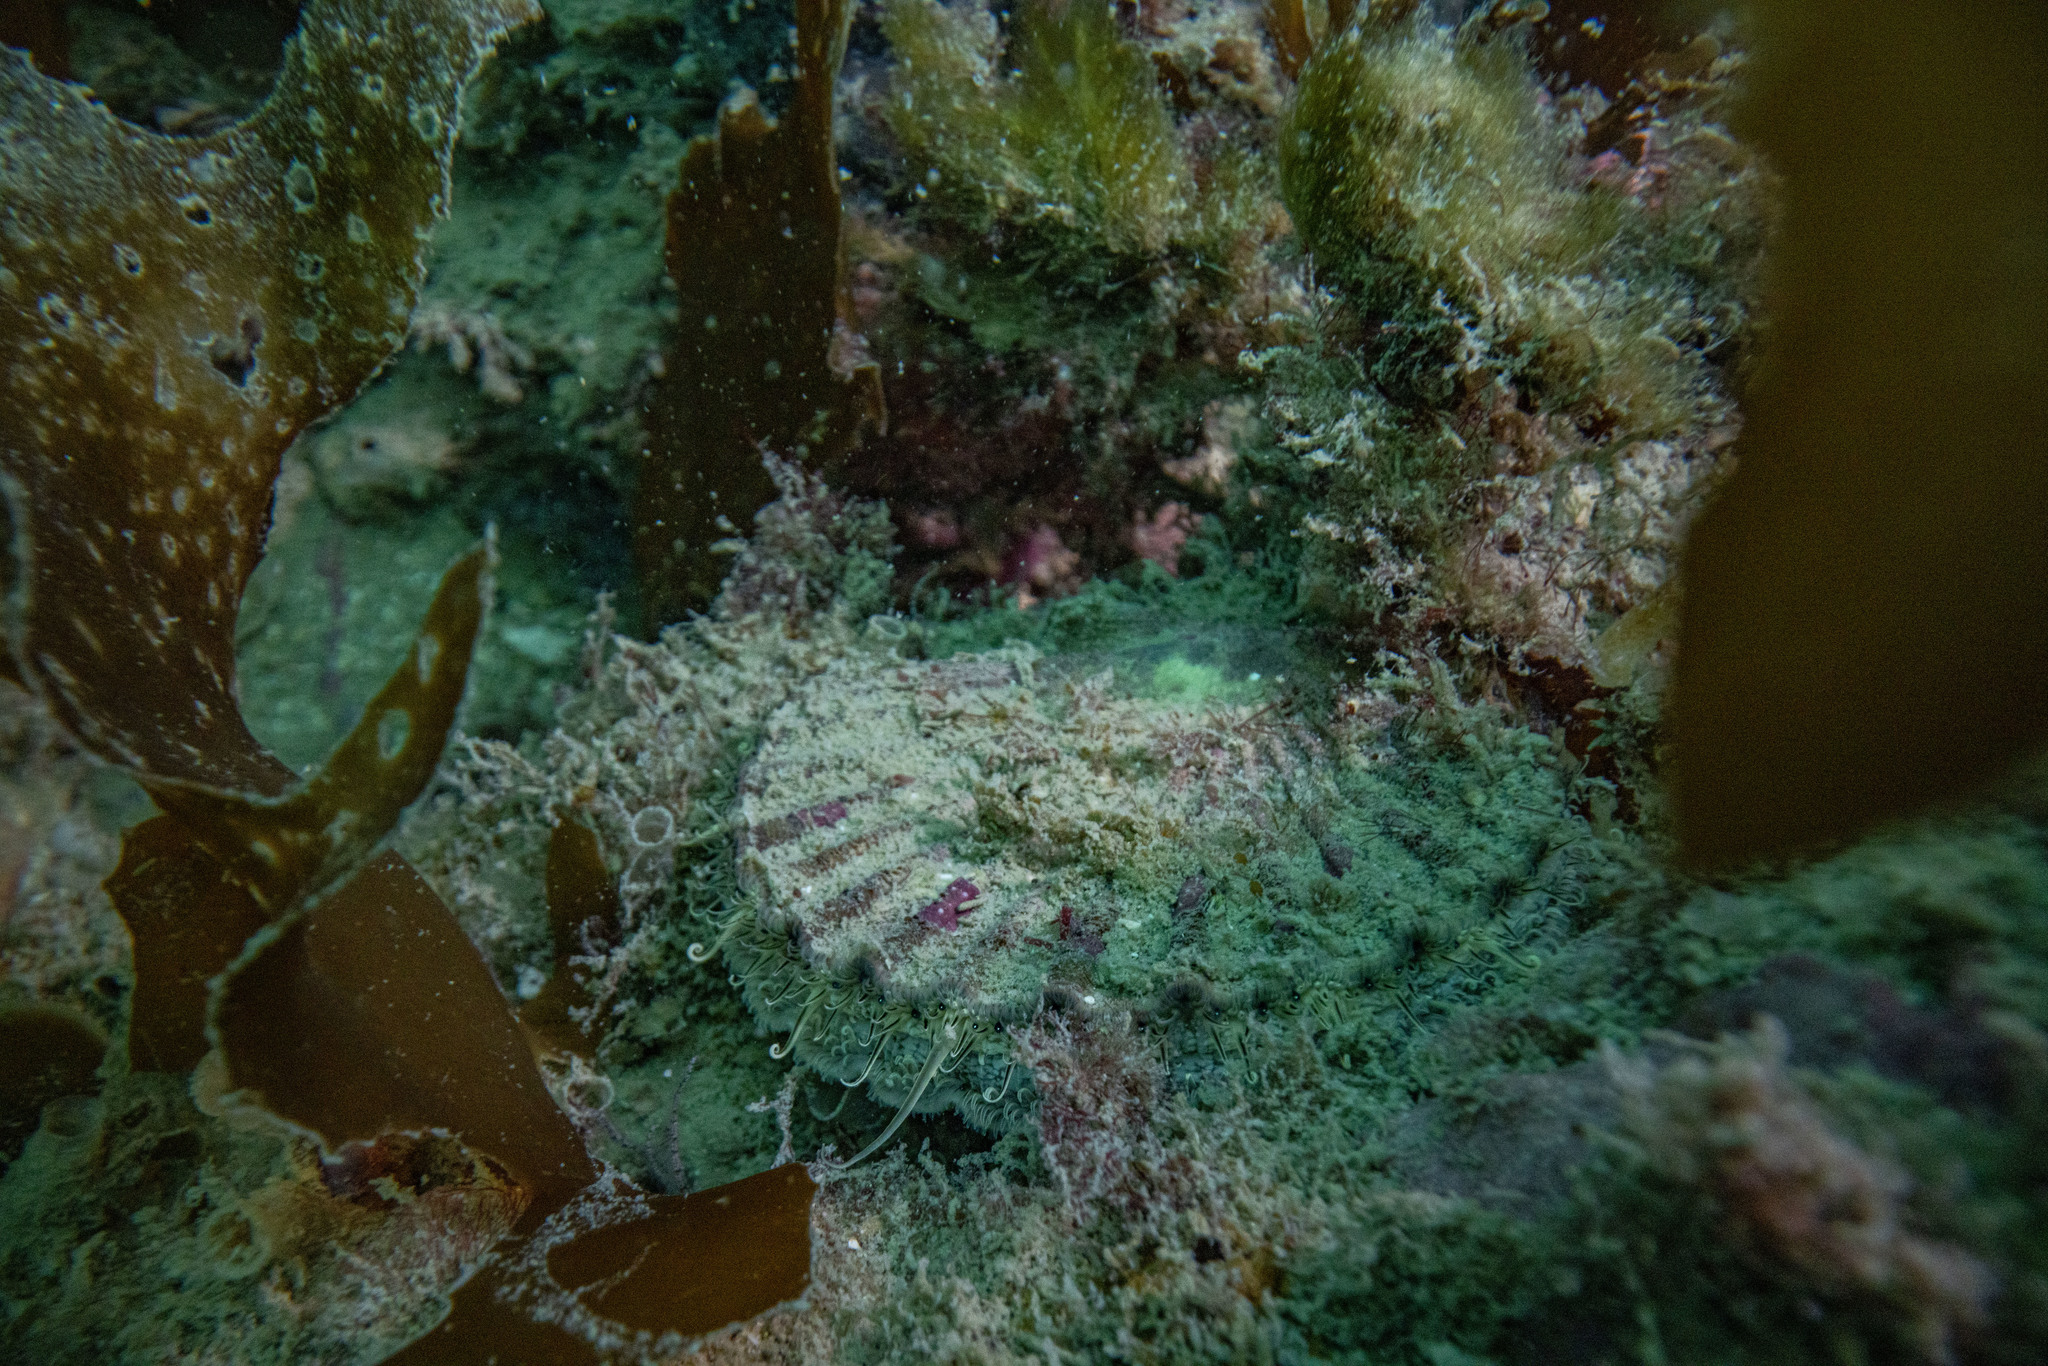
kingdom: Animalia
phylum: Mollusca
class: Bivalvia
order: Pectinida
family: Pectinidae
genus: Pecten
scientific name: Pecten novaezelandiae
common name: New zealand scallop
